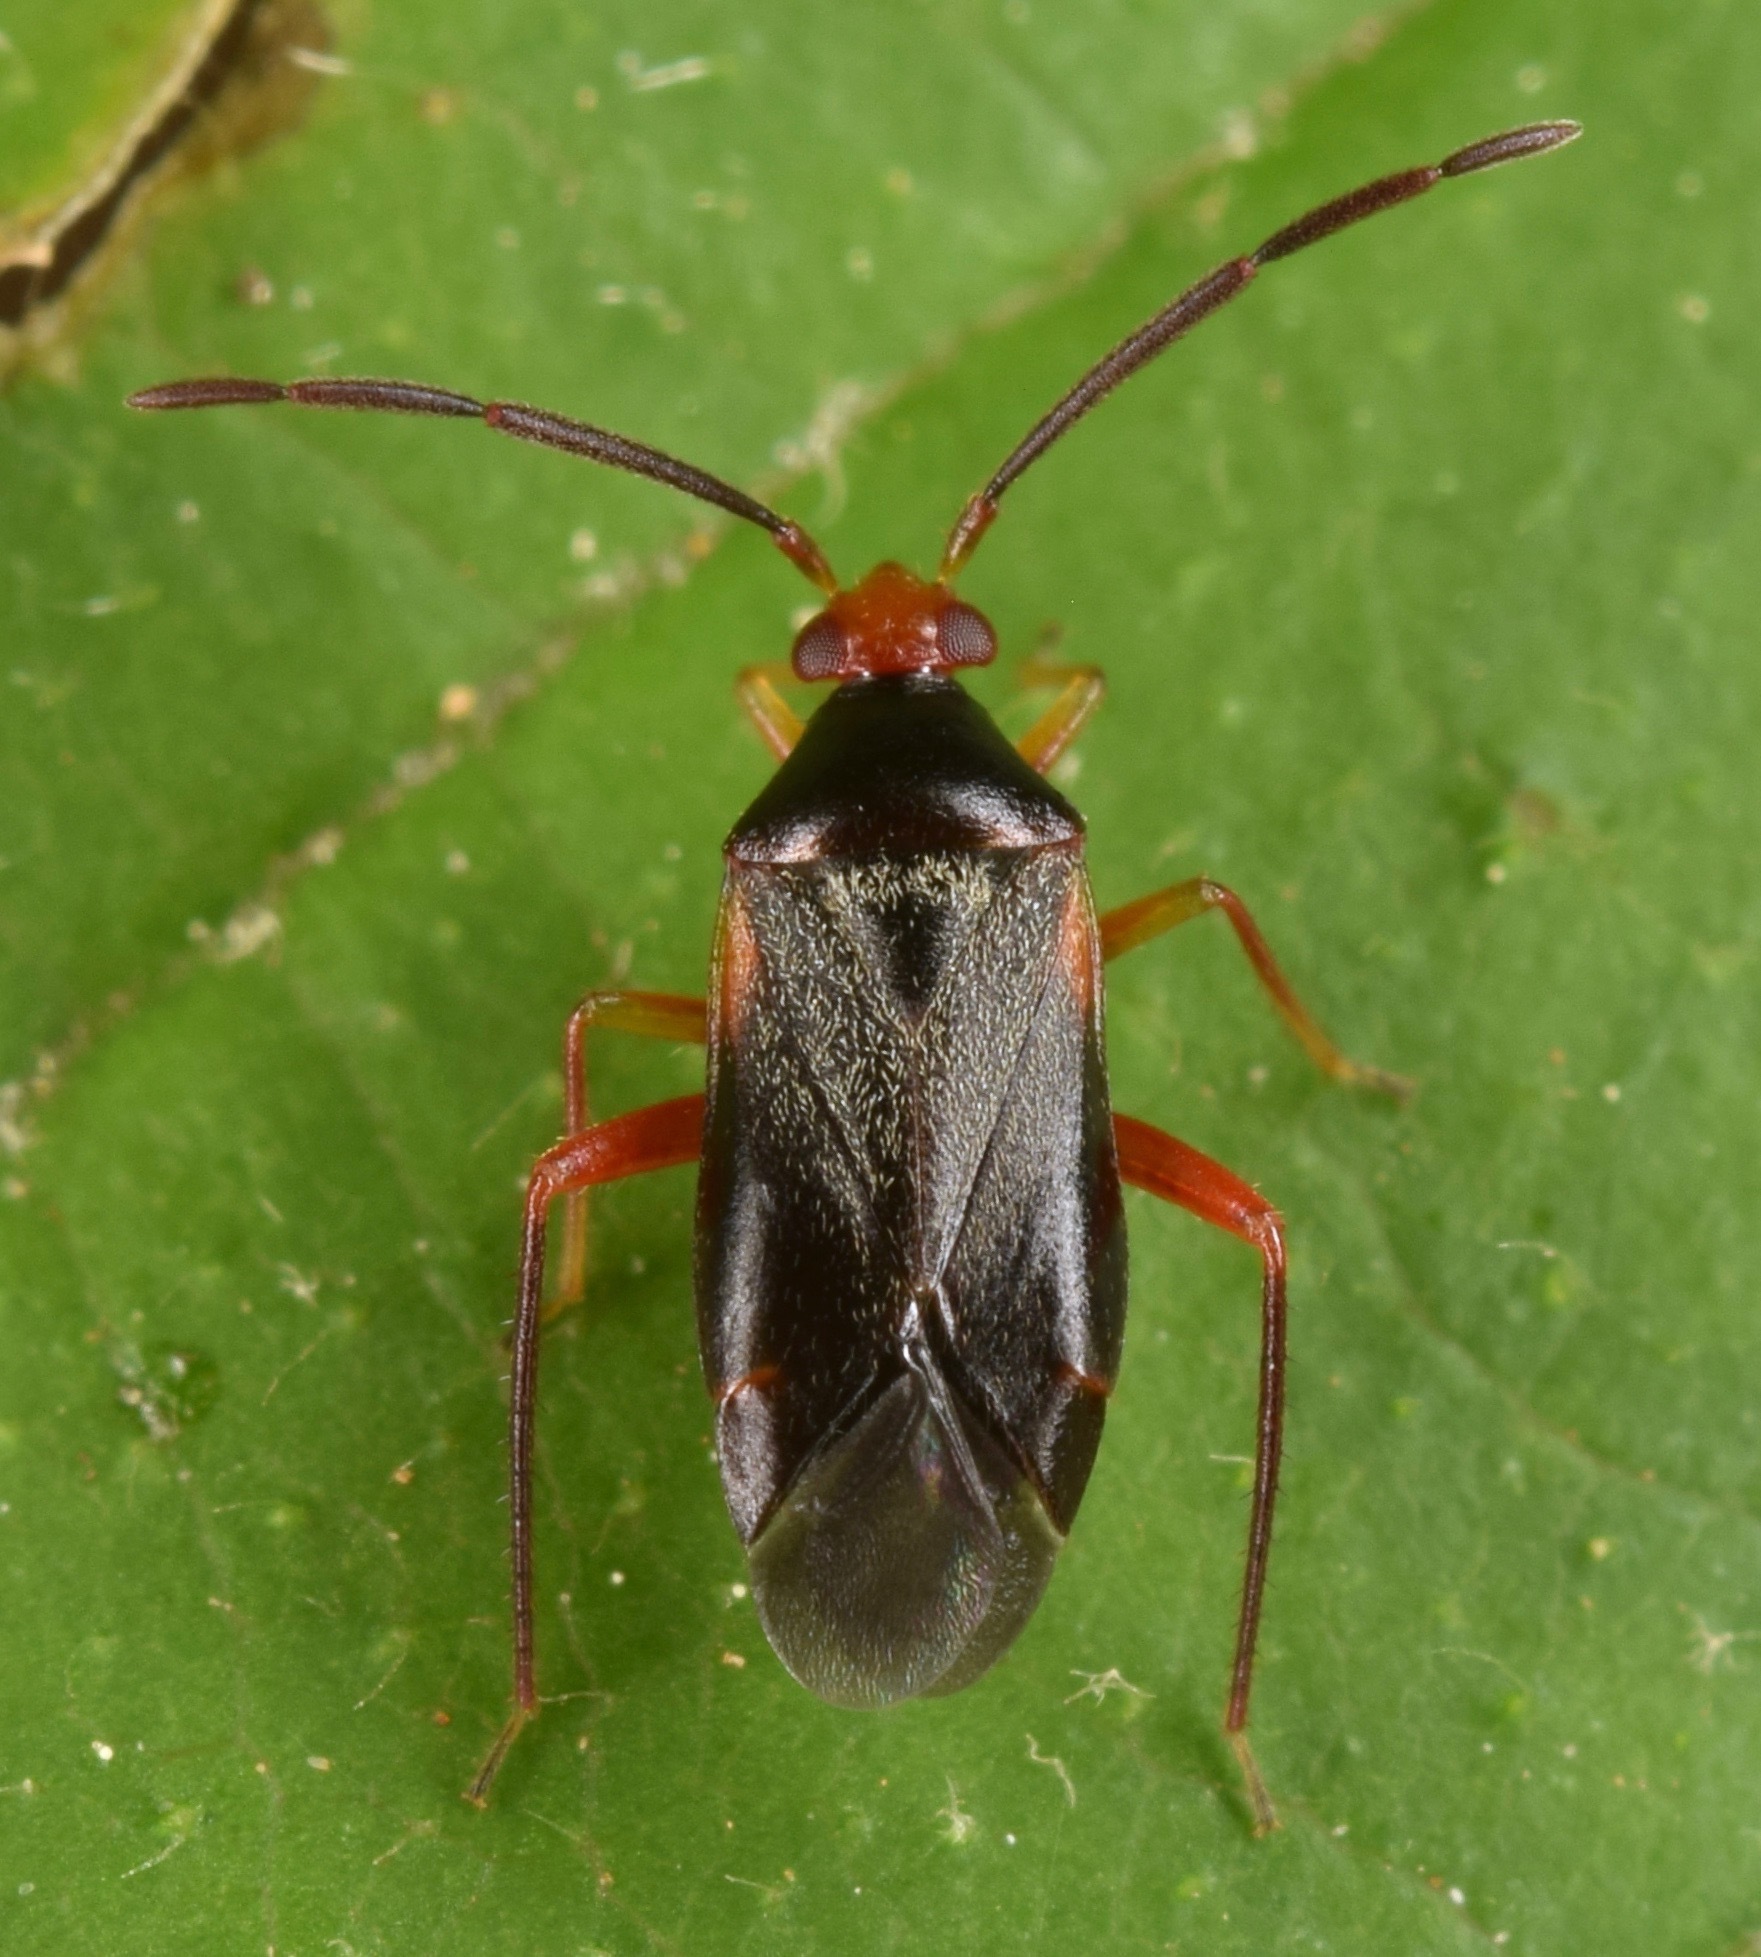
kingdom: Animalia
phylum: Arthropoda
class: Insecta
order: Hemiptera
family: Miridae
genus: Ceratocapsus
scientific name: Ceratocapsus nigellus
